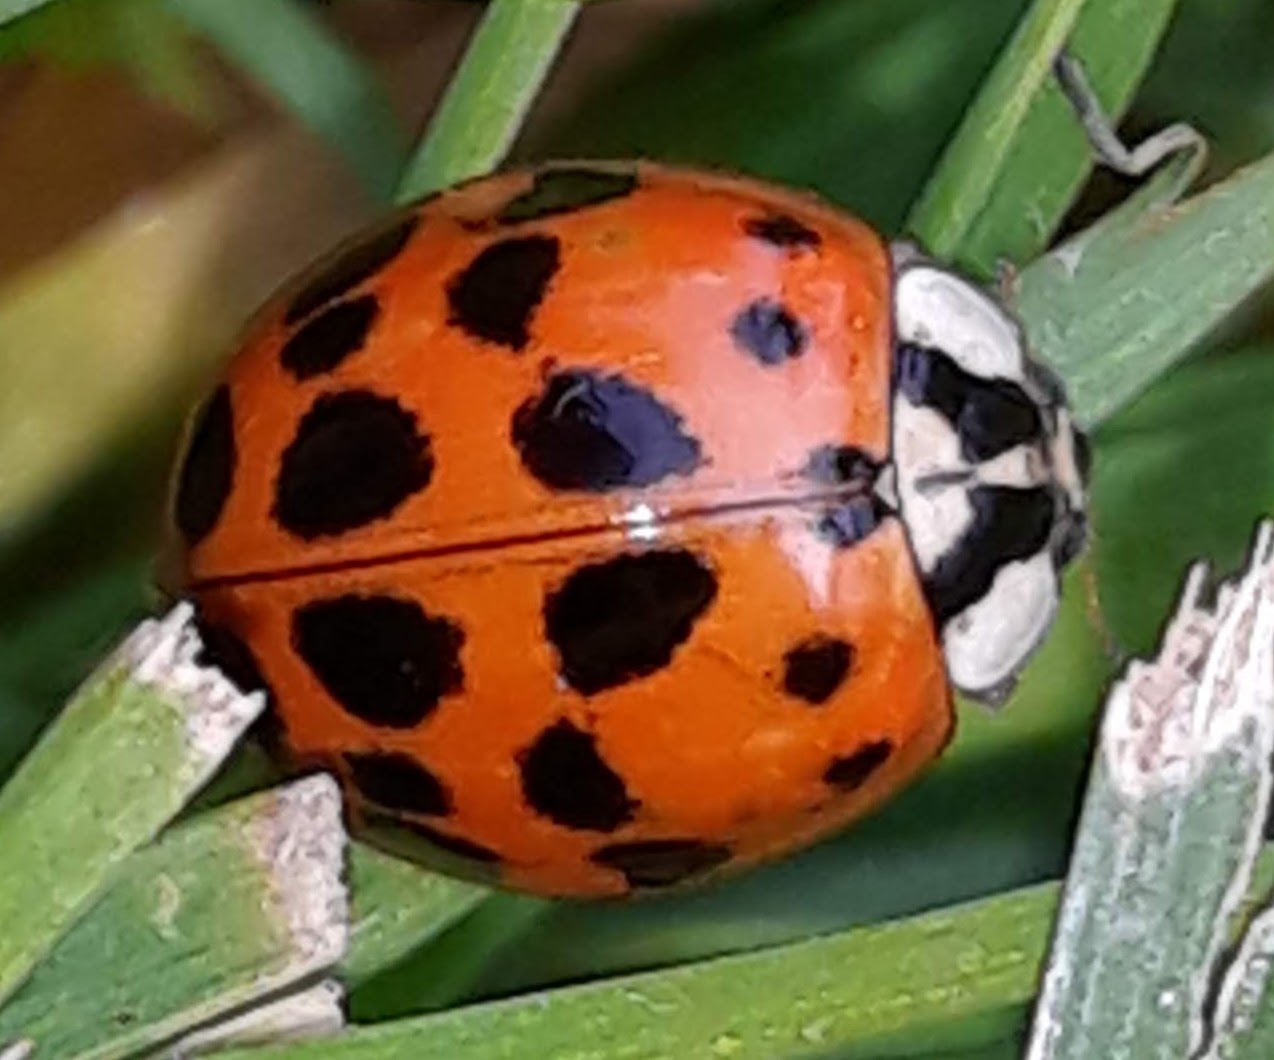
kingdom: Animalia
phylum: Arthropoda
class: Insecta
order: Coleoptera
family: Coccinellidae
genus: Harmonia
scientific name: Harmonia axyridis
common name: Harlequin ladybird
